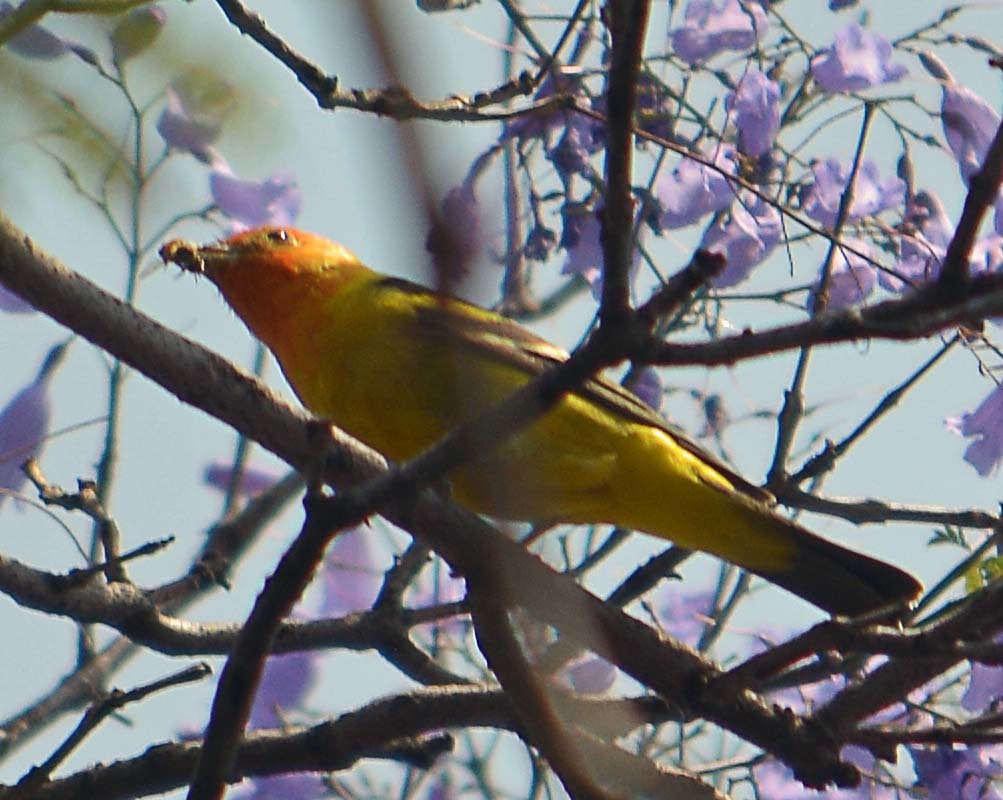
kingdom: Animalia
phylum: Chordata
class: Aves
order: Passeriformes
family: Cardinalidae
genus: Piranga
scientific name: Piranga ludoviciana
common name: Western tanager
